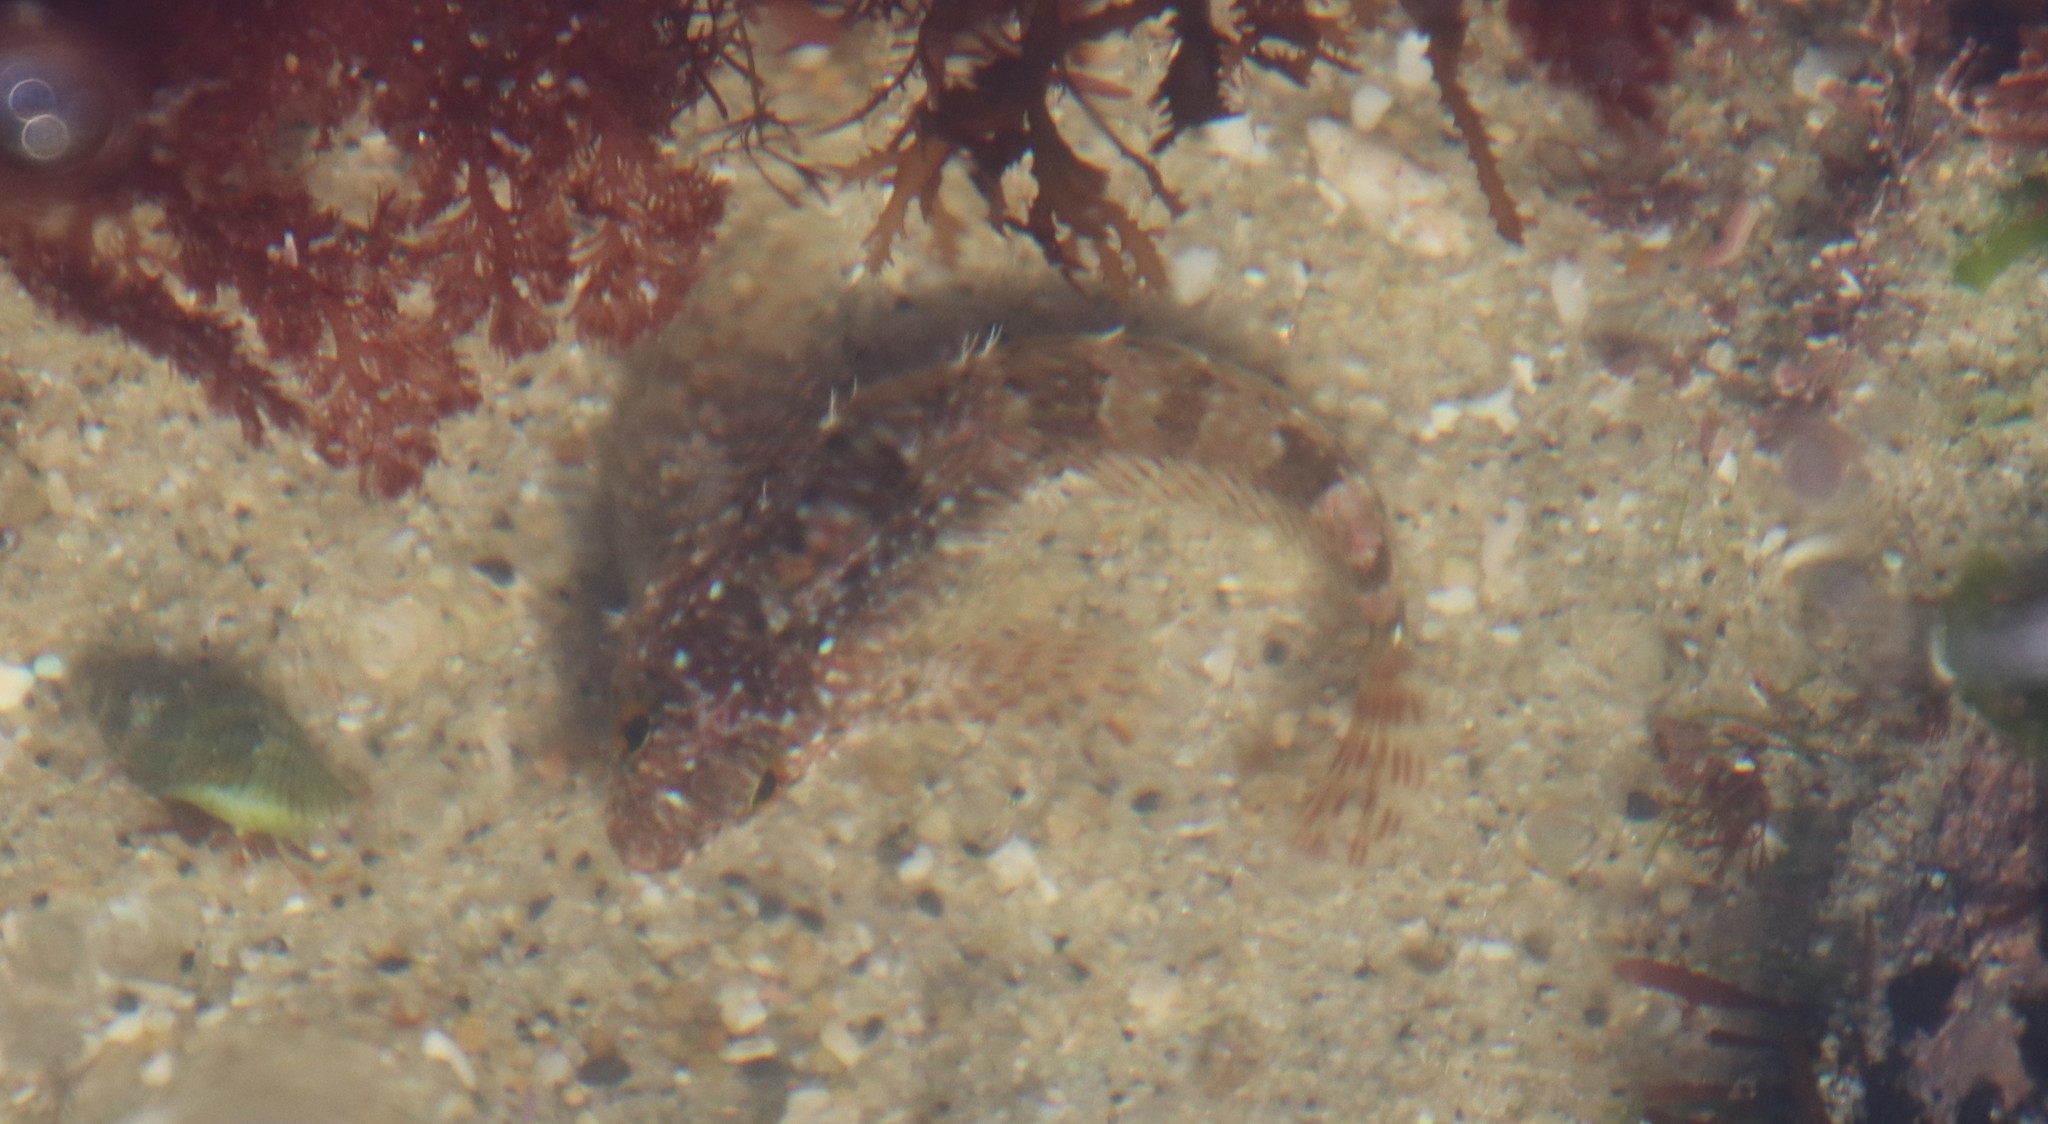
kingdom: Animalia
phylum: Chordata
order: Scorpaeniformes
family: Cottidae
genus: Clinocottus
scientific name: Clinocottus analis
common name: Woolly sculpin
